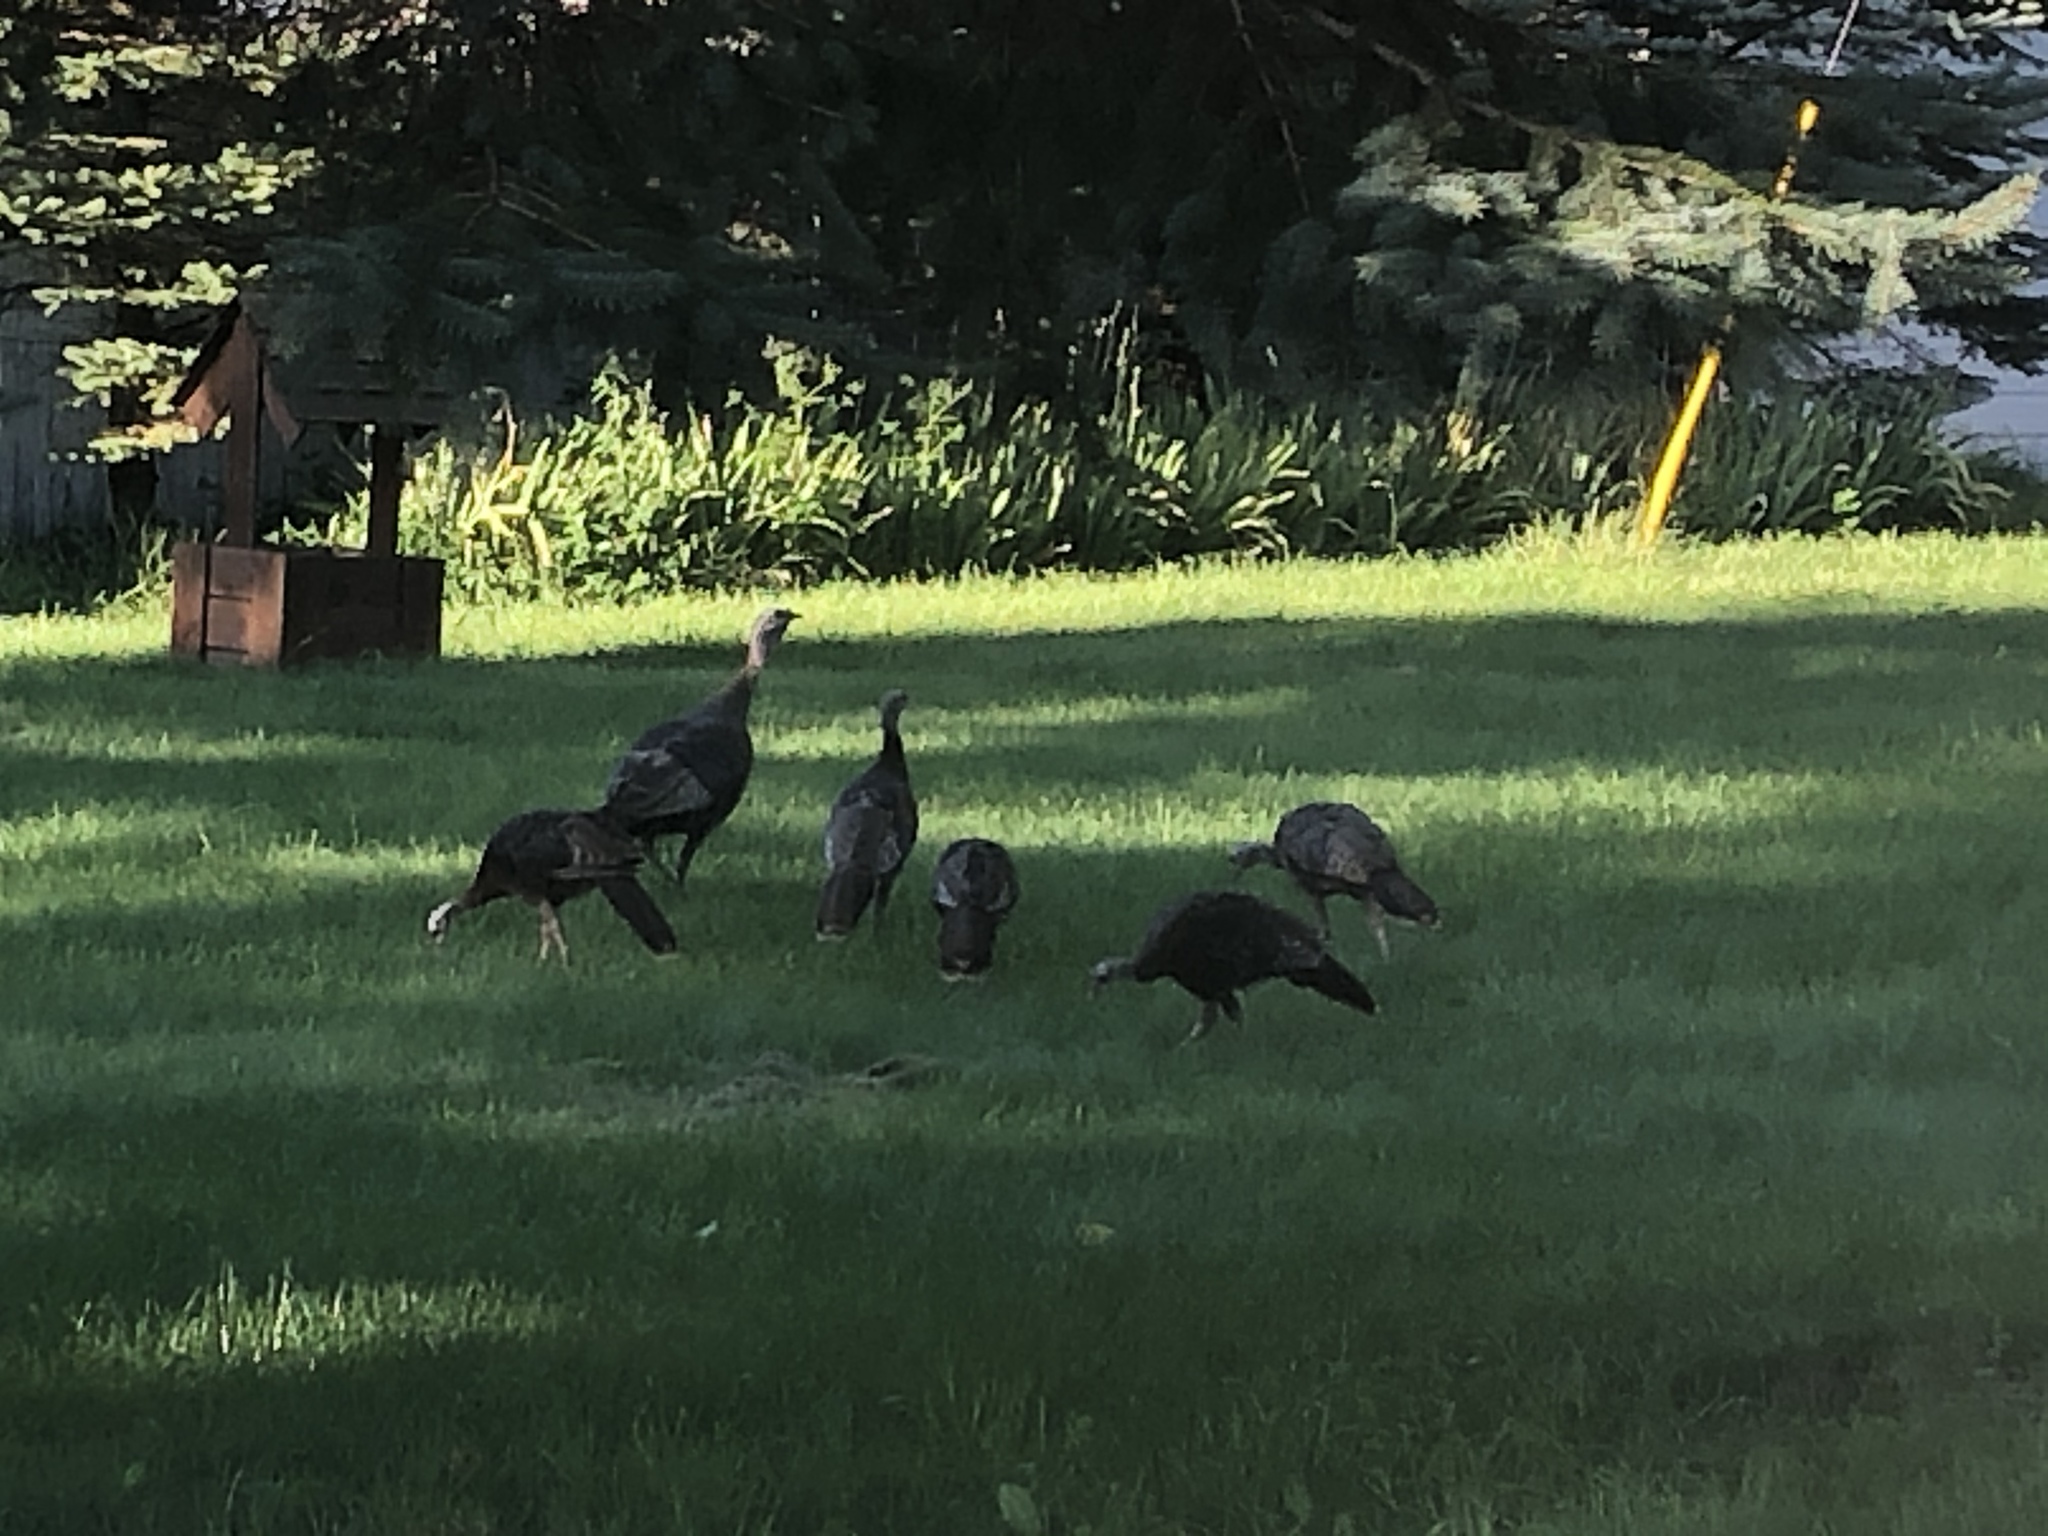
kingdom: Animalia
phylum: Chordata
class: Aves
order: Galliformes
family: Phasianidae
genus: Meleagris
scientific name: Meleagris gallopavo
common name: Wild turkey
